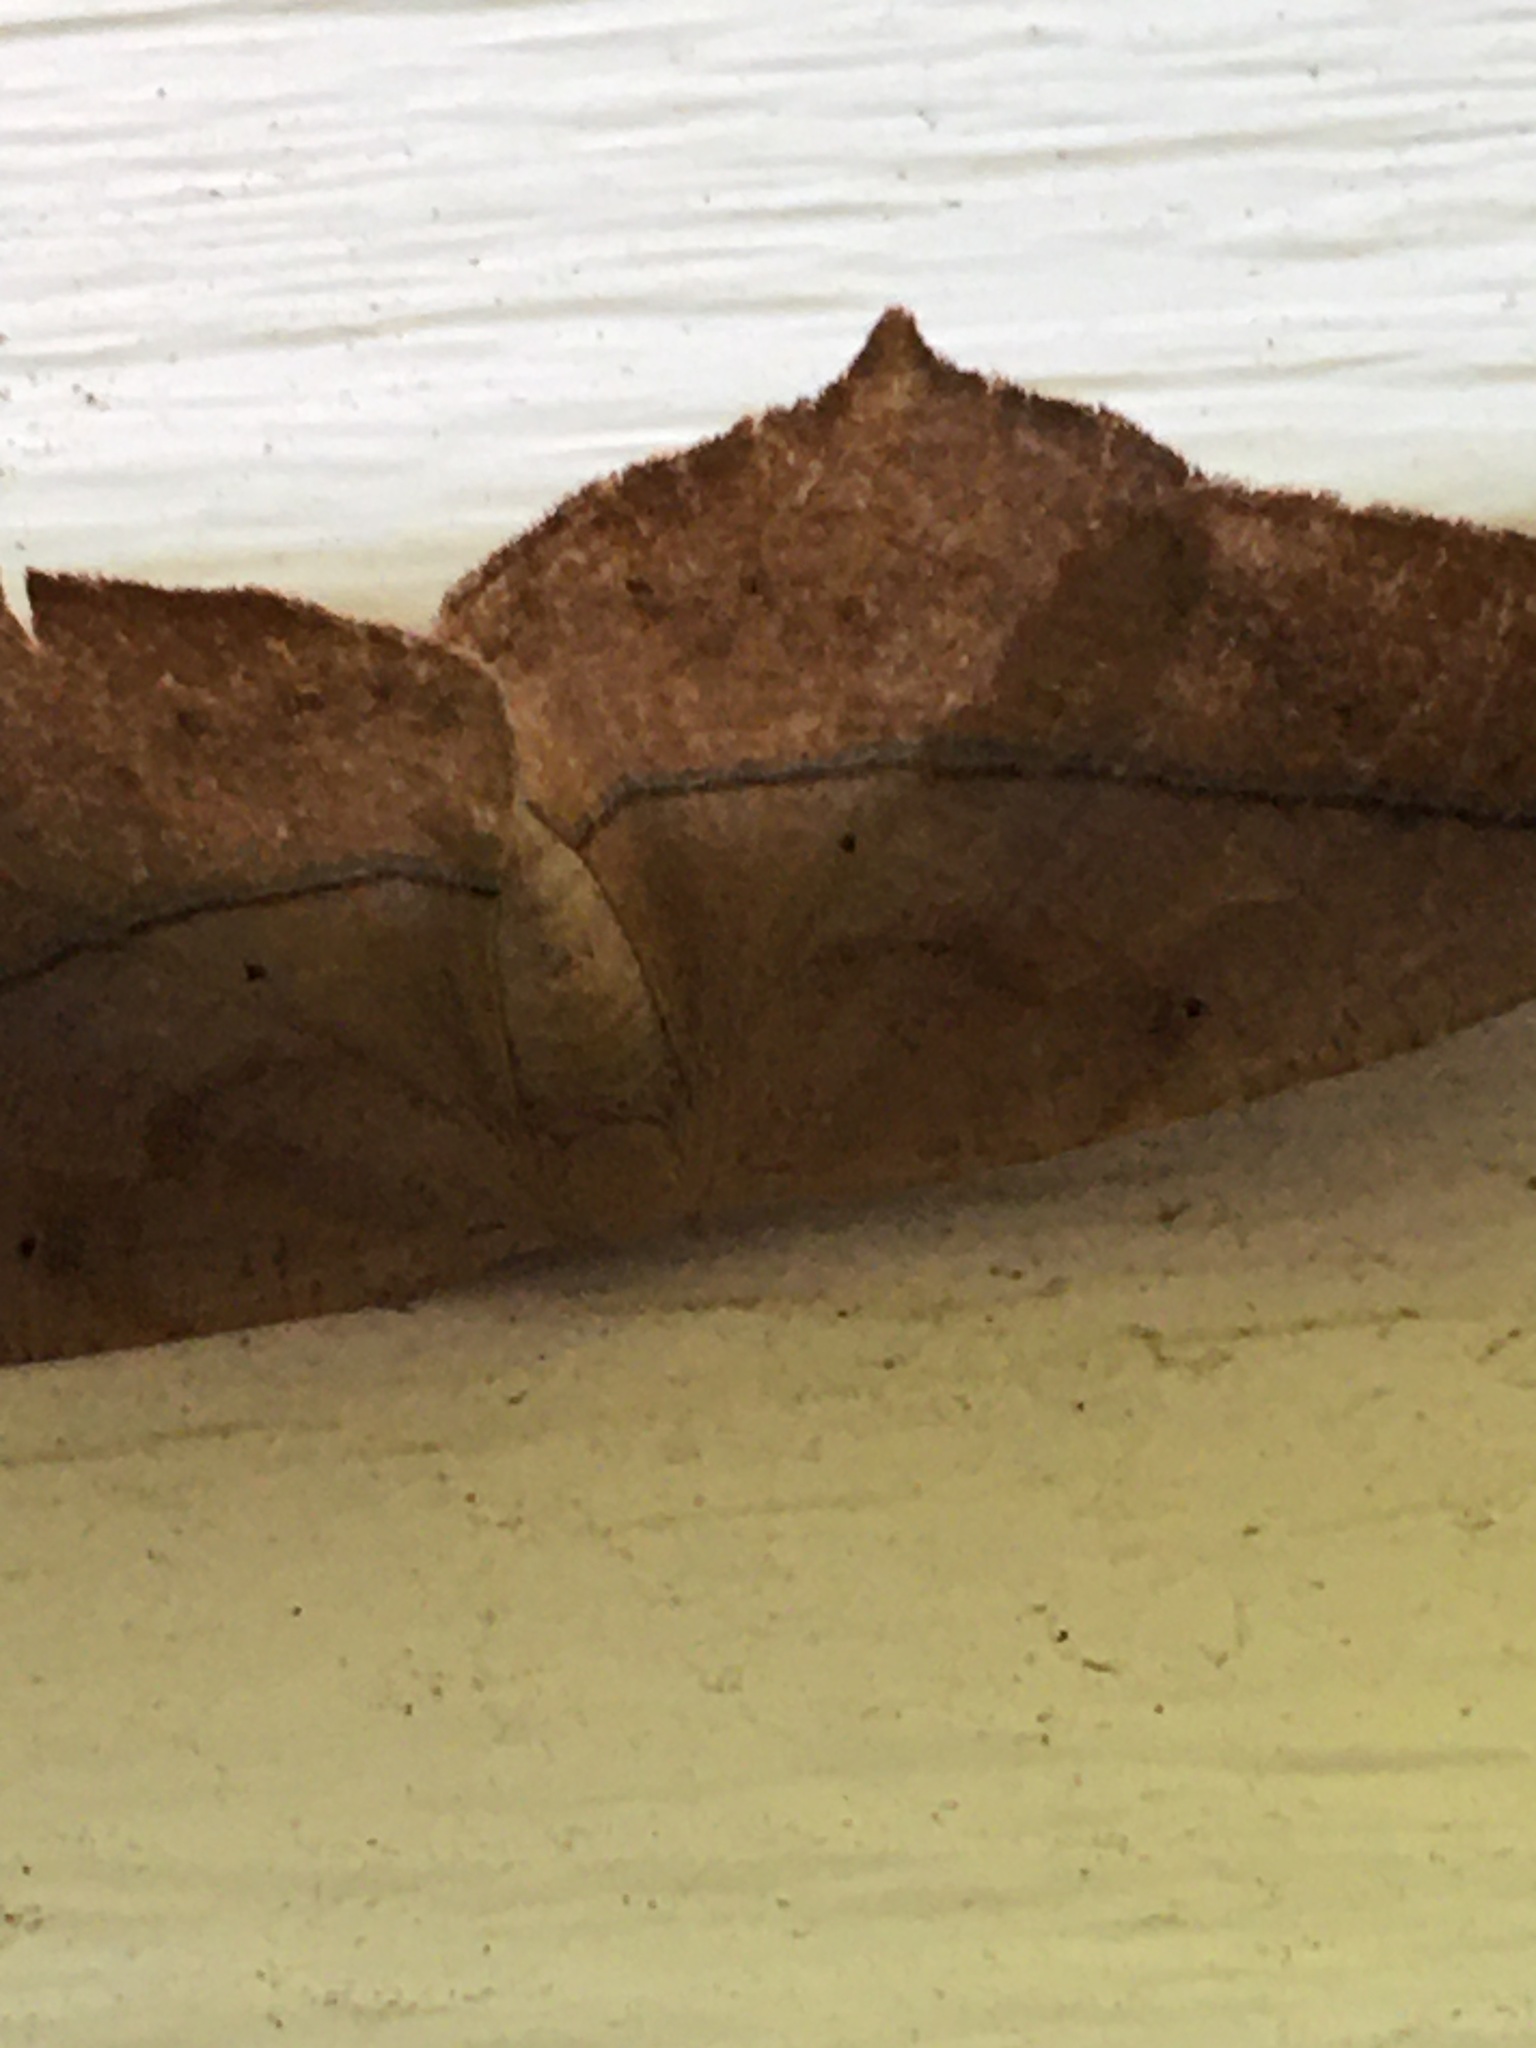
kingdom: Animalia
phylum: Arthropoda
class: Insecta
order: Lepidoptera
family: Geometridae
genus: Prochoerodes
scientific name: Prochoerodes lineola
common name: Large maple spanworm
